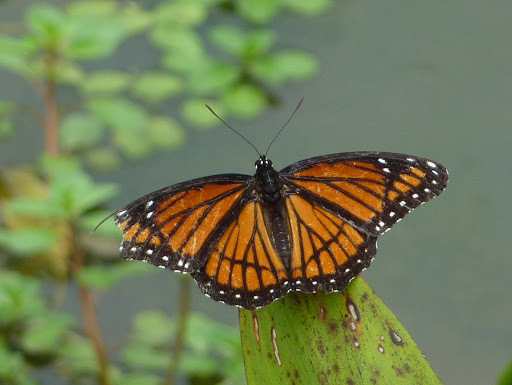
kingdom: Animalia
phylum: Arthropoda
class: Insecta
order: Lepidoptera
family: Nymphalidae
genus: Limenitis
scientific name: Limenitis archippus
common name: Viceroy
